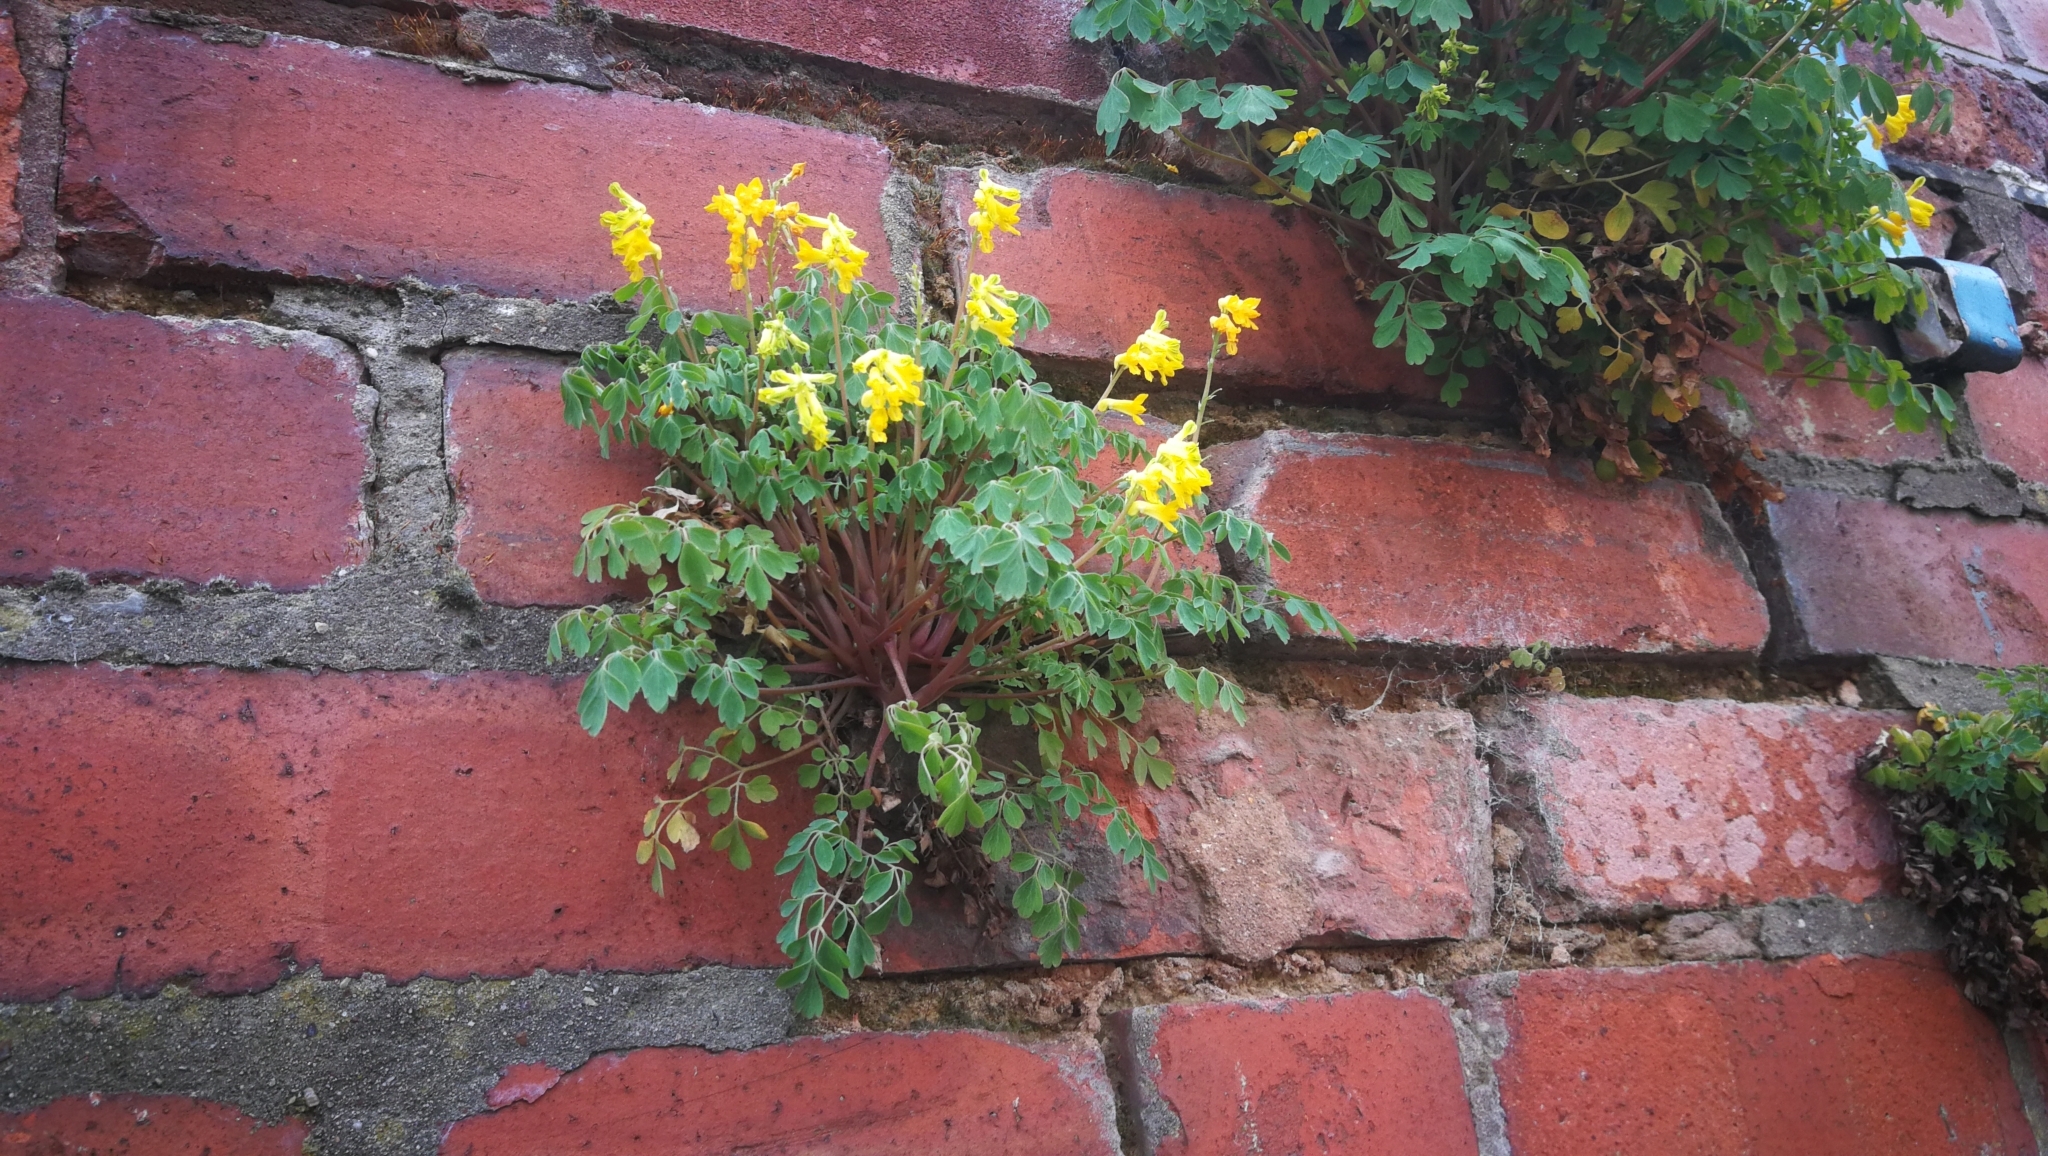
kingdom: Plantae
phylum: Tracheophyta
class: Magnoliopsida
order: Ranunculales
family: Papaveraceae
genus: Pseudofumaria
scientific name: Pseudofumaria lutea
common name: Yellow corydalis
